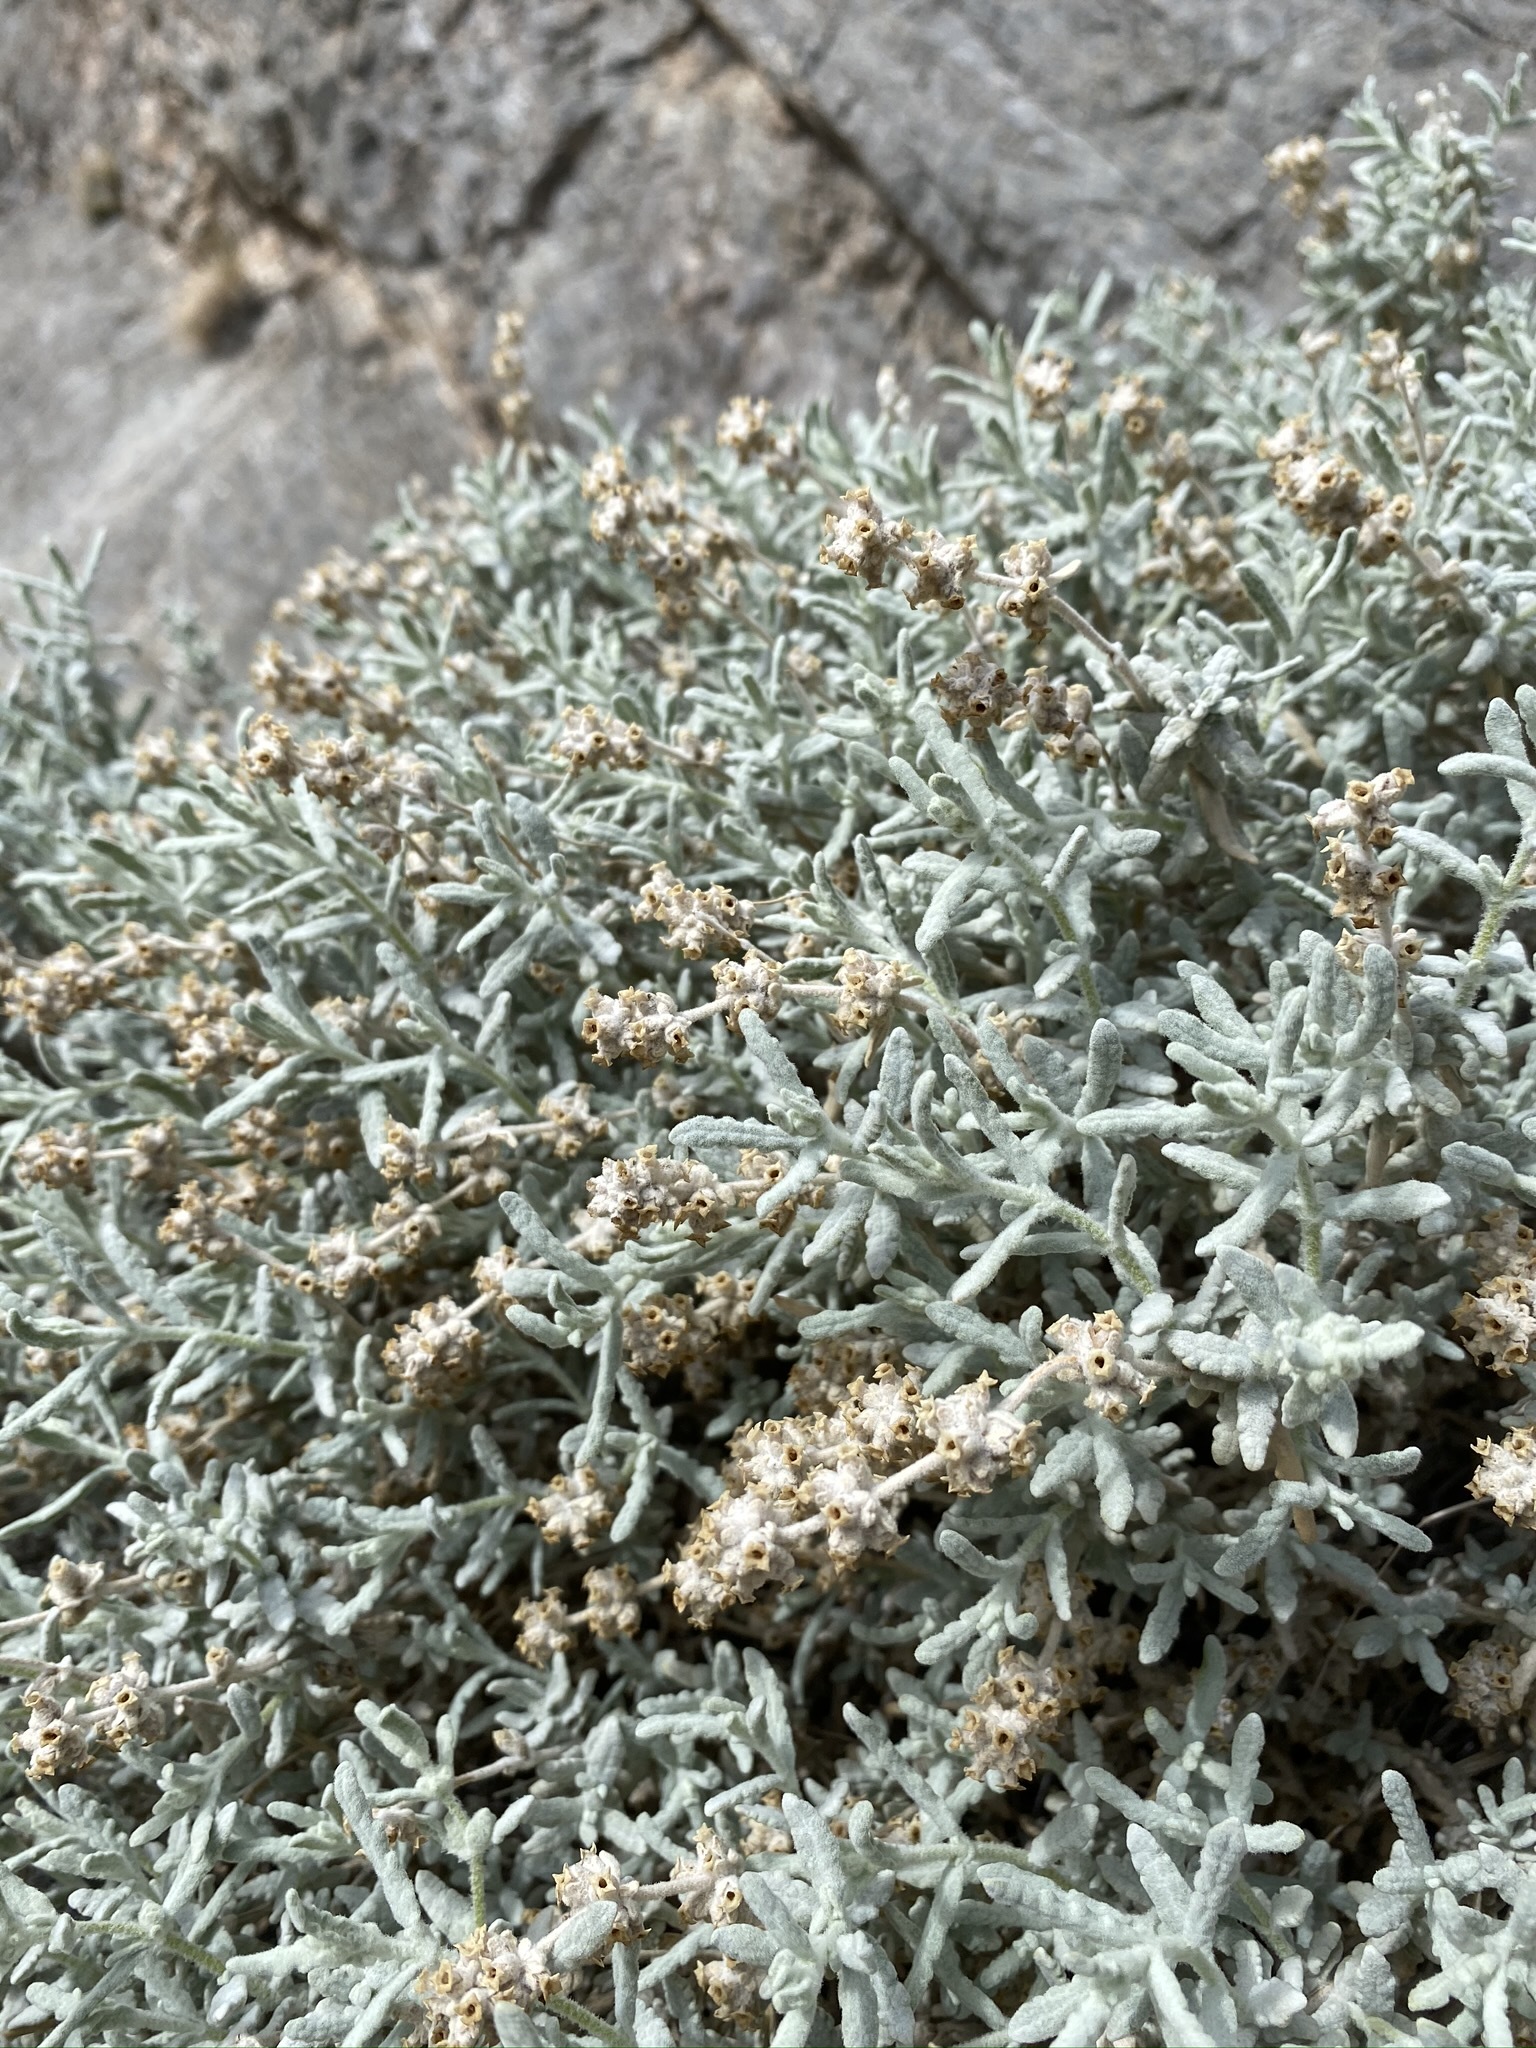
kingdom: Plantae
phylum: Tracheophyta
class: Magnoliopsida
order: Lamiales
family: Scrophulariaceae
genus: Buddleja
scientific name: Buddleja utahensis
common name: Utah butterfly-bush
